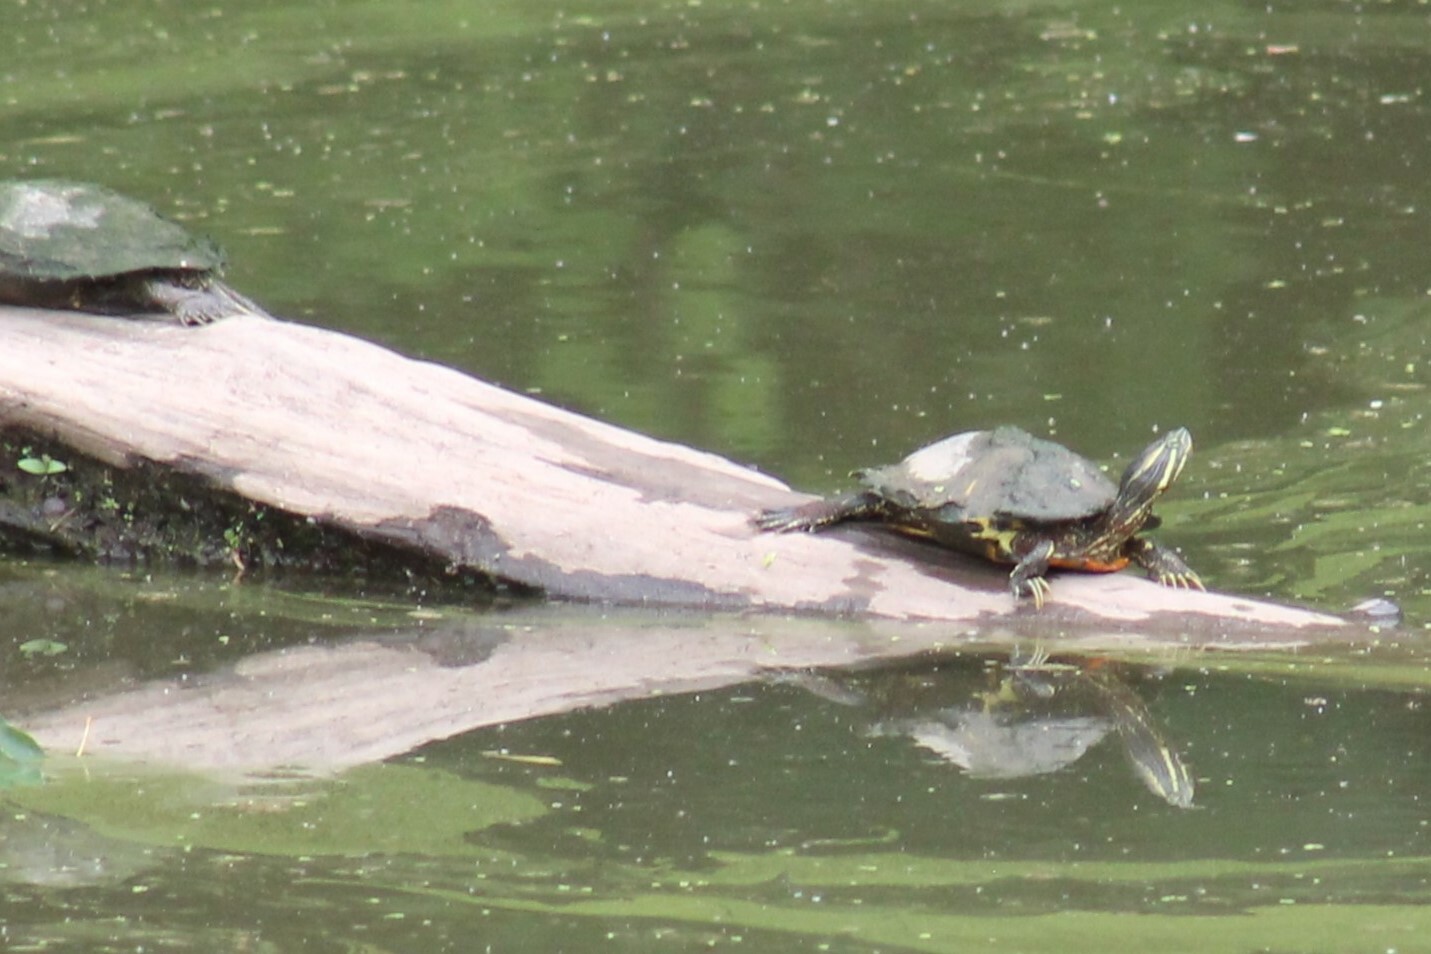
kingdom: Animalia
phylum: Chordata
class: Testudines
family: Emydidae
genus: Trachemys
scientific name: Trachemys scripta
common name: Slider
